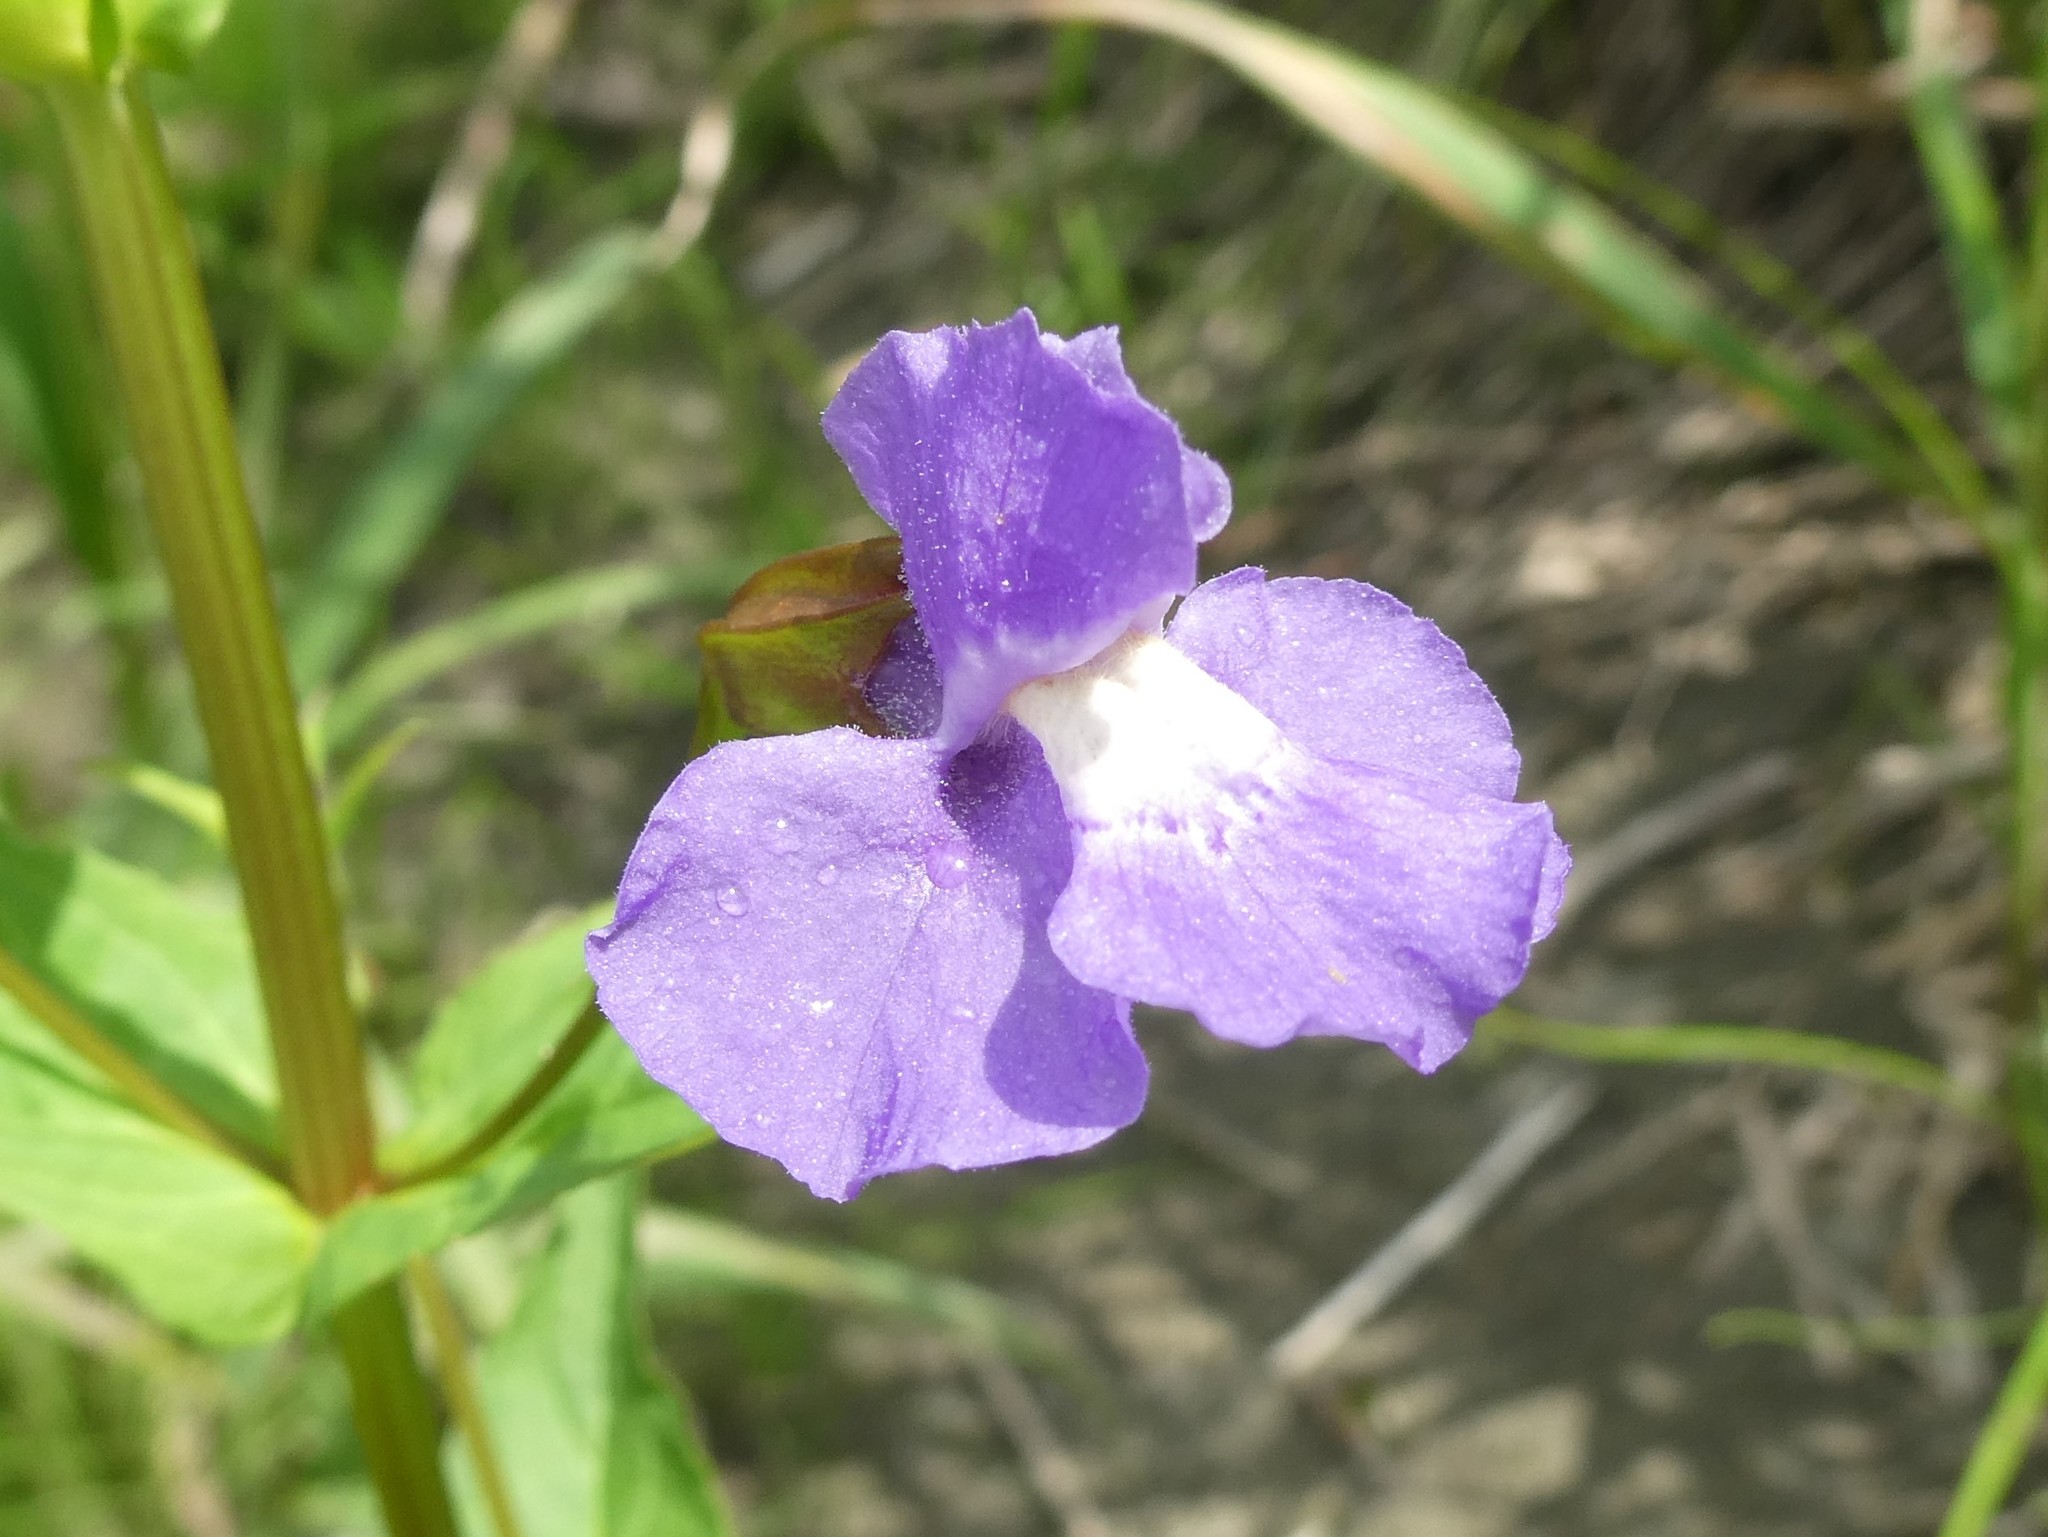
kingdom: Plantae
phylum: Tracheophyta
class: Magnoliopsida
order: Lamiales
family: Phrymaceae
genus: Mimulus
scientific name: Mimulus ringens
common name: Allegheny monkeyflower
